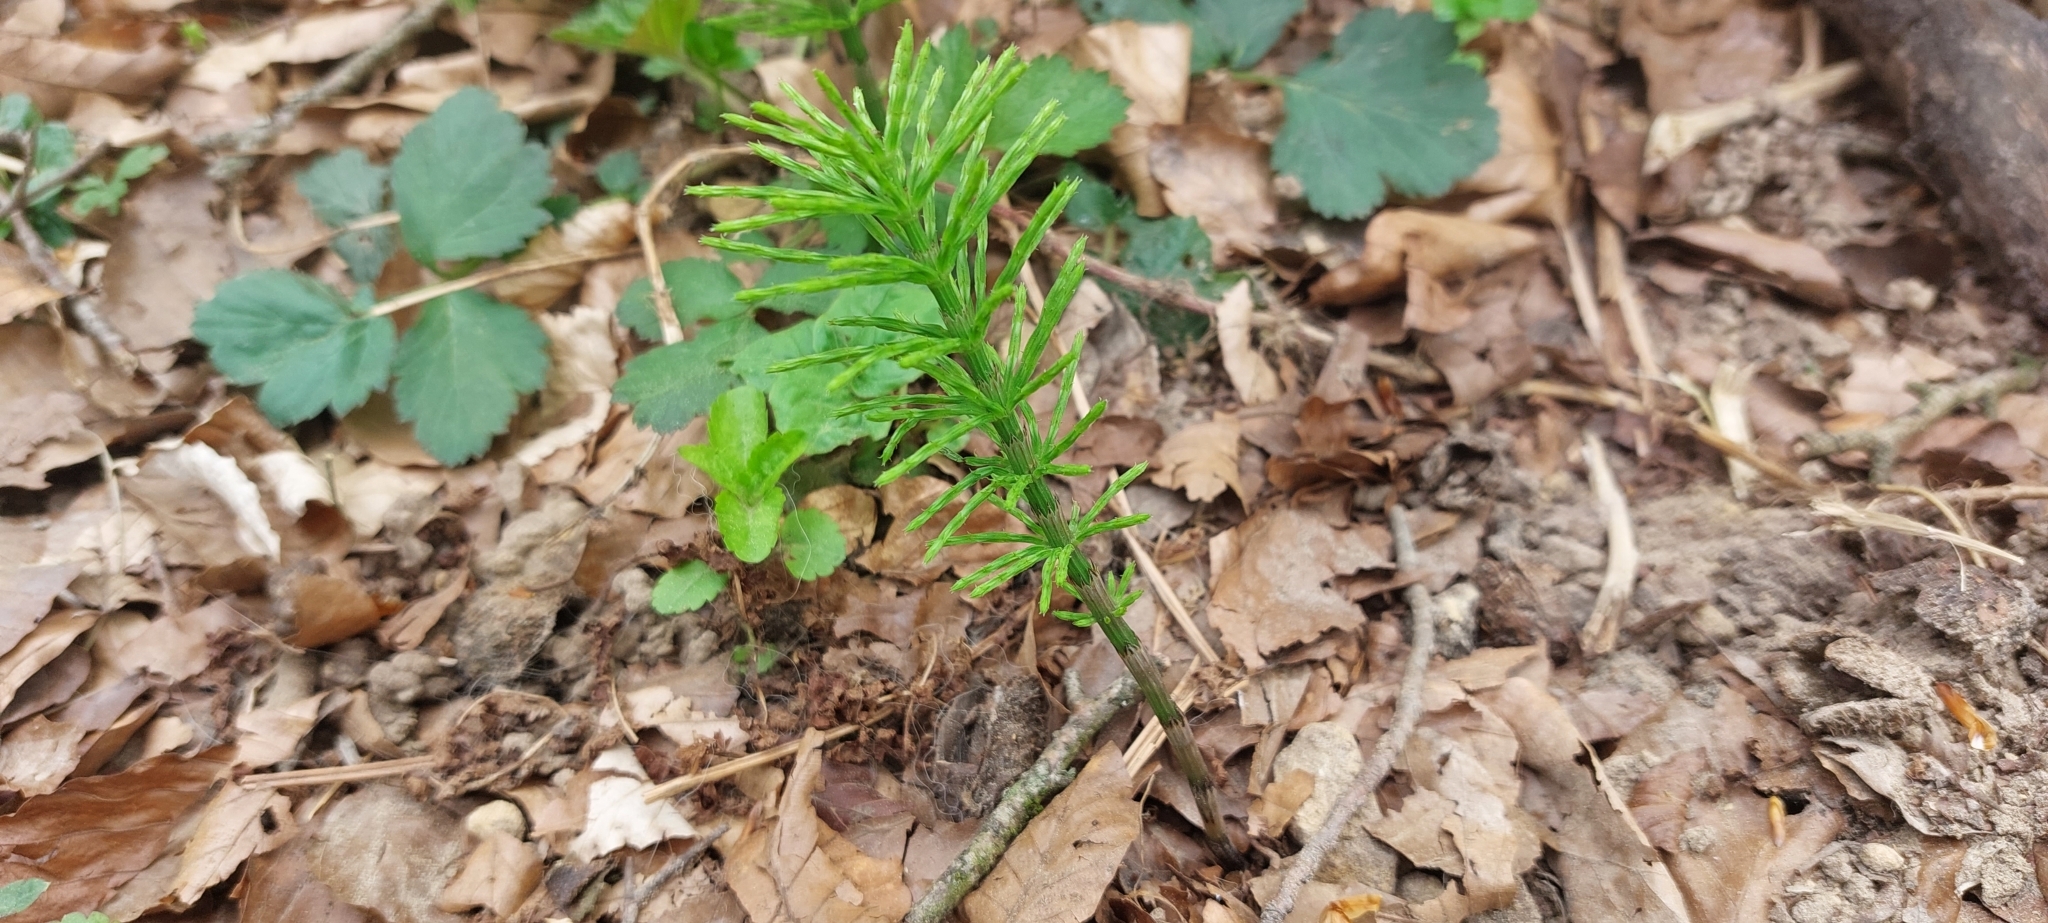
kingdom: Plantae
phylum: Tracheophyta
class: Polypodiopsida
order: Equisetales
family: Equisetaceae
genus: Equisetum
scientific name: Equisetum arvense
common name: Field horsetail
